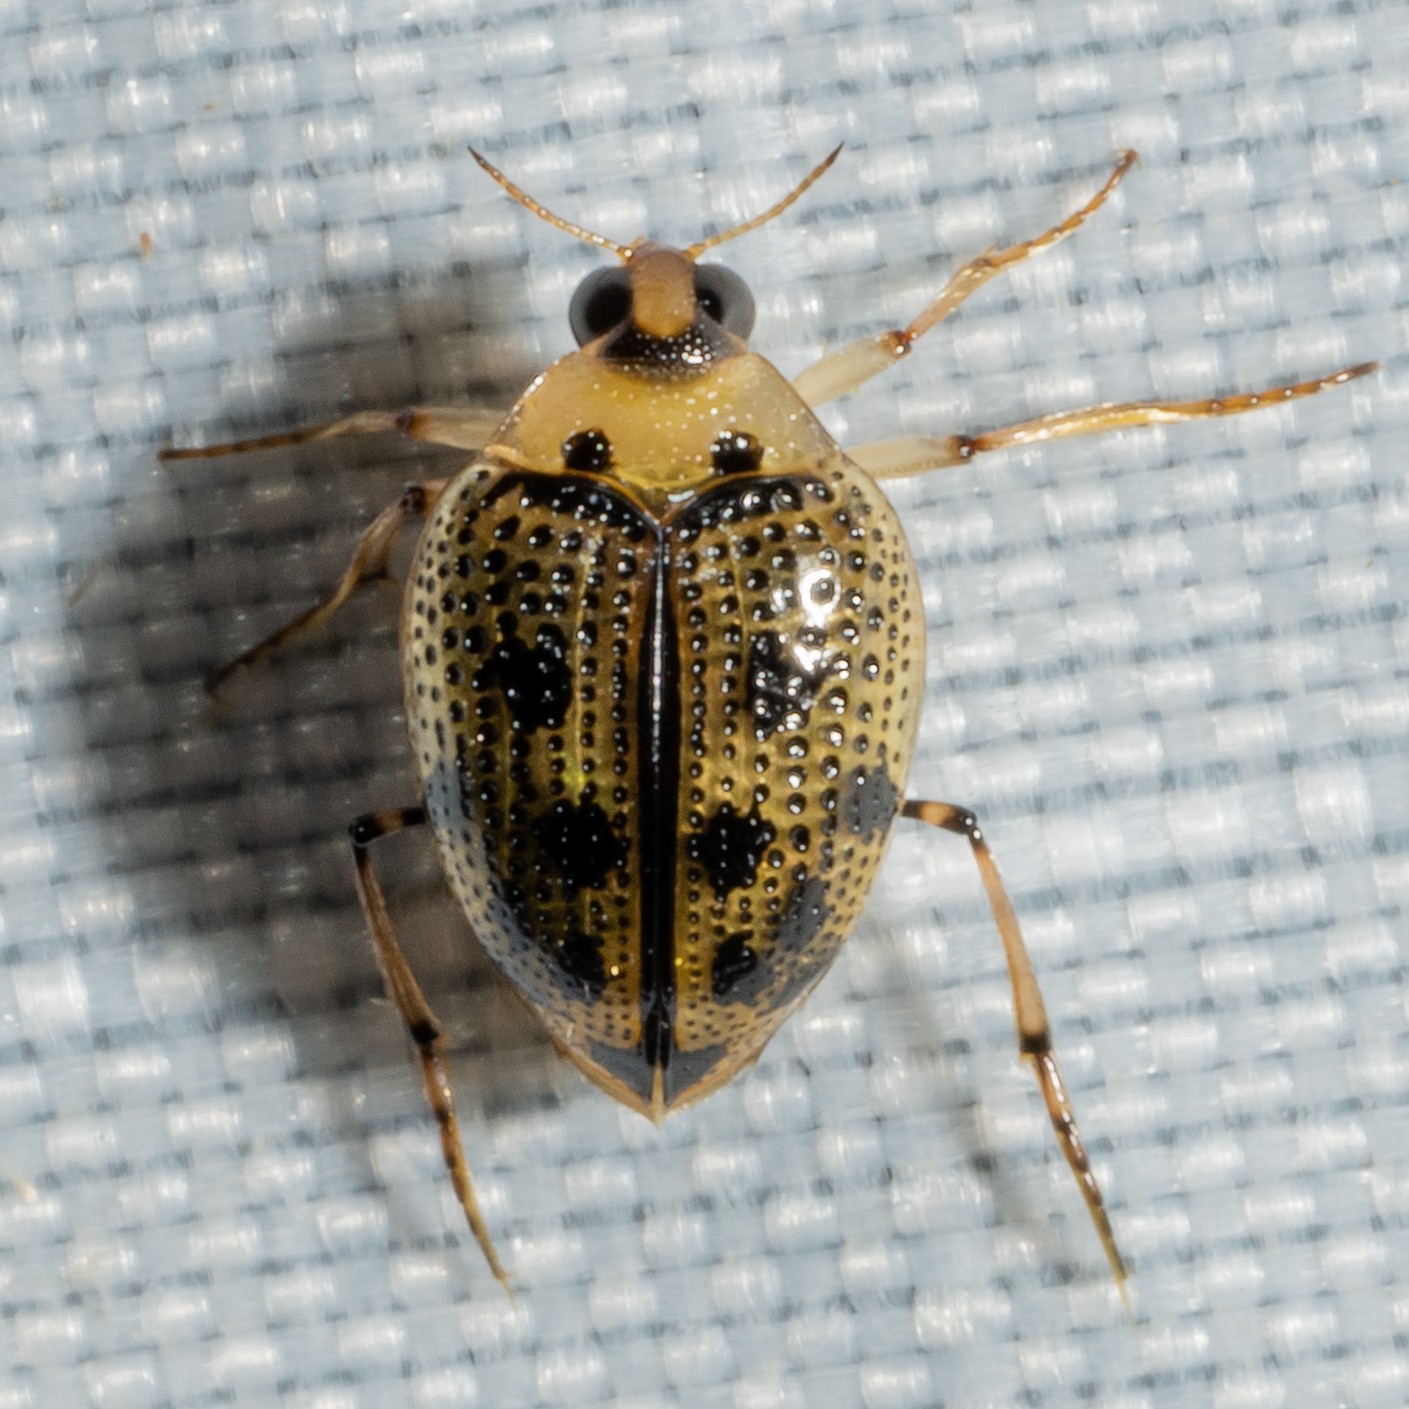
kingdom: Animalia
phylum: Arthropoda
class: Insecta
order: Coleoptera
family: Haliplidae
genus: Peltodytes
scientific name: Peltodytes edentulus
